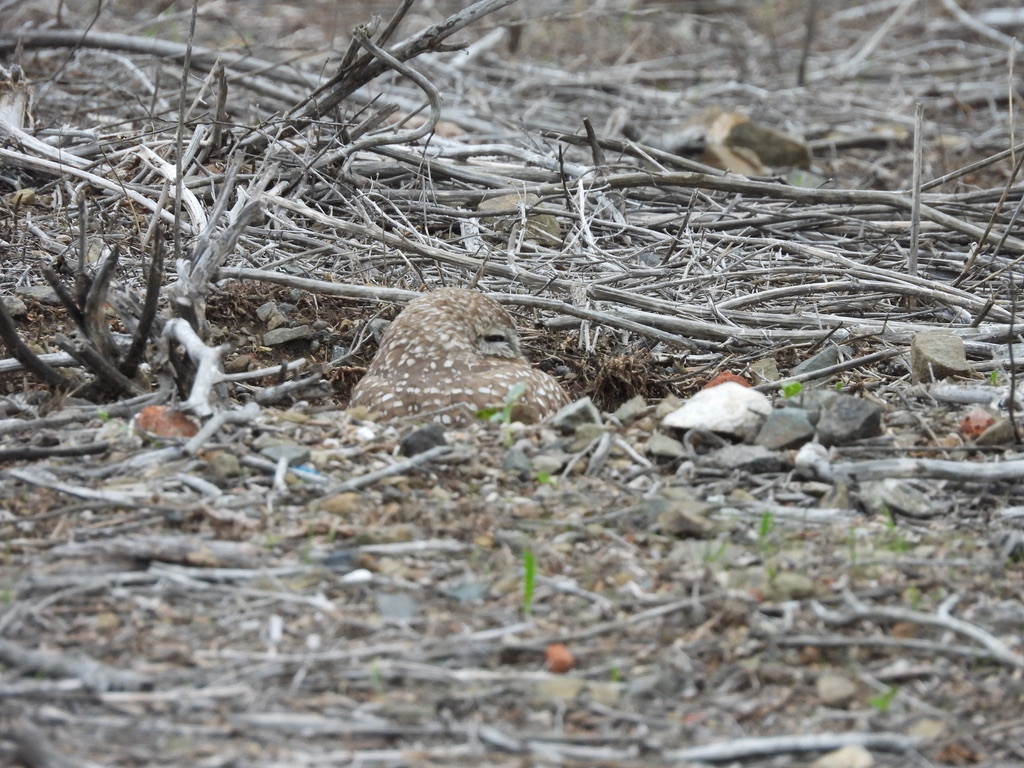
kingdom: Animalia
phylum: Chordata
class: Aves
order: Strigiformes
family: Strigidae
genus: Athene
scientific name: Athene cunicularia
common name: Burrowing owl
